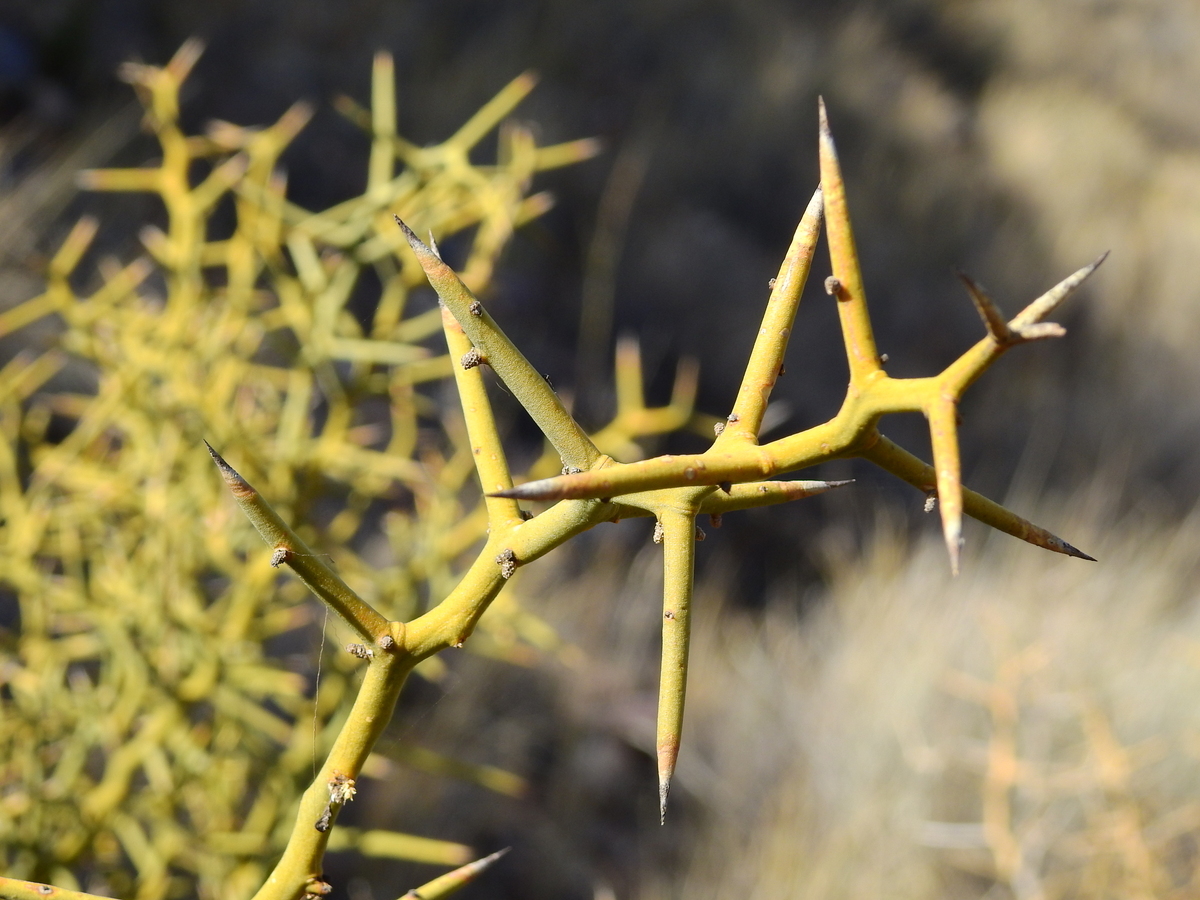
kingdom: Plantae
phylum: Tracheophyta
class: Magnoliopsida
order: Fabales
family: Polygalaceae
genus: Bredemeyera
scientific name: Bredemeyera colletioides
